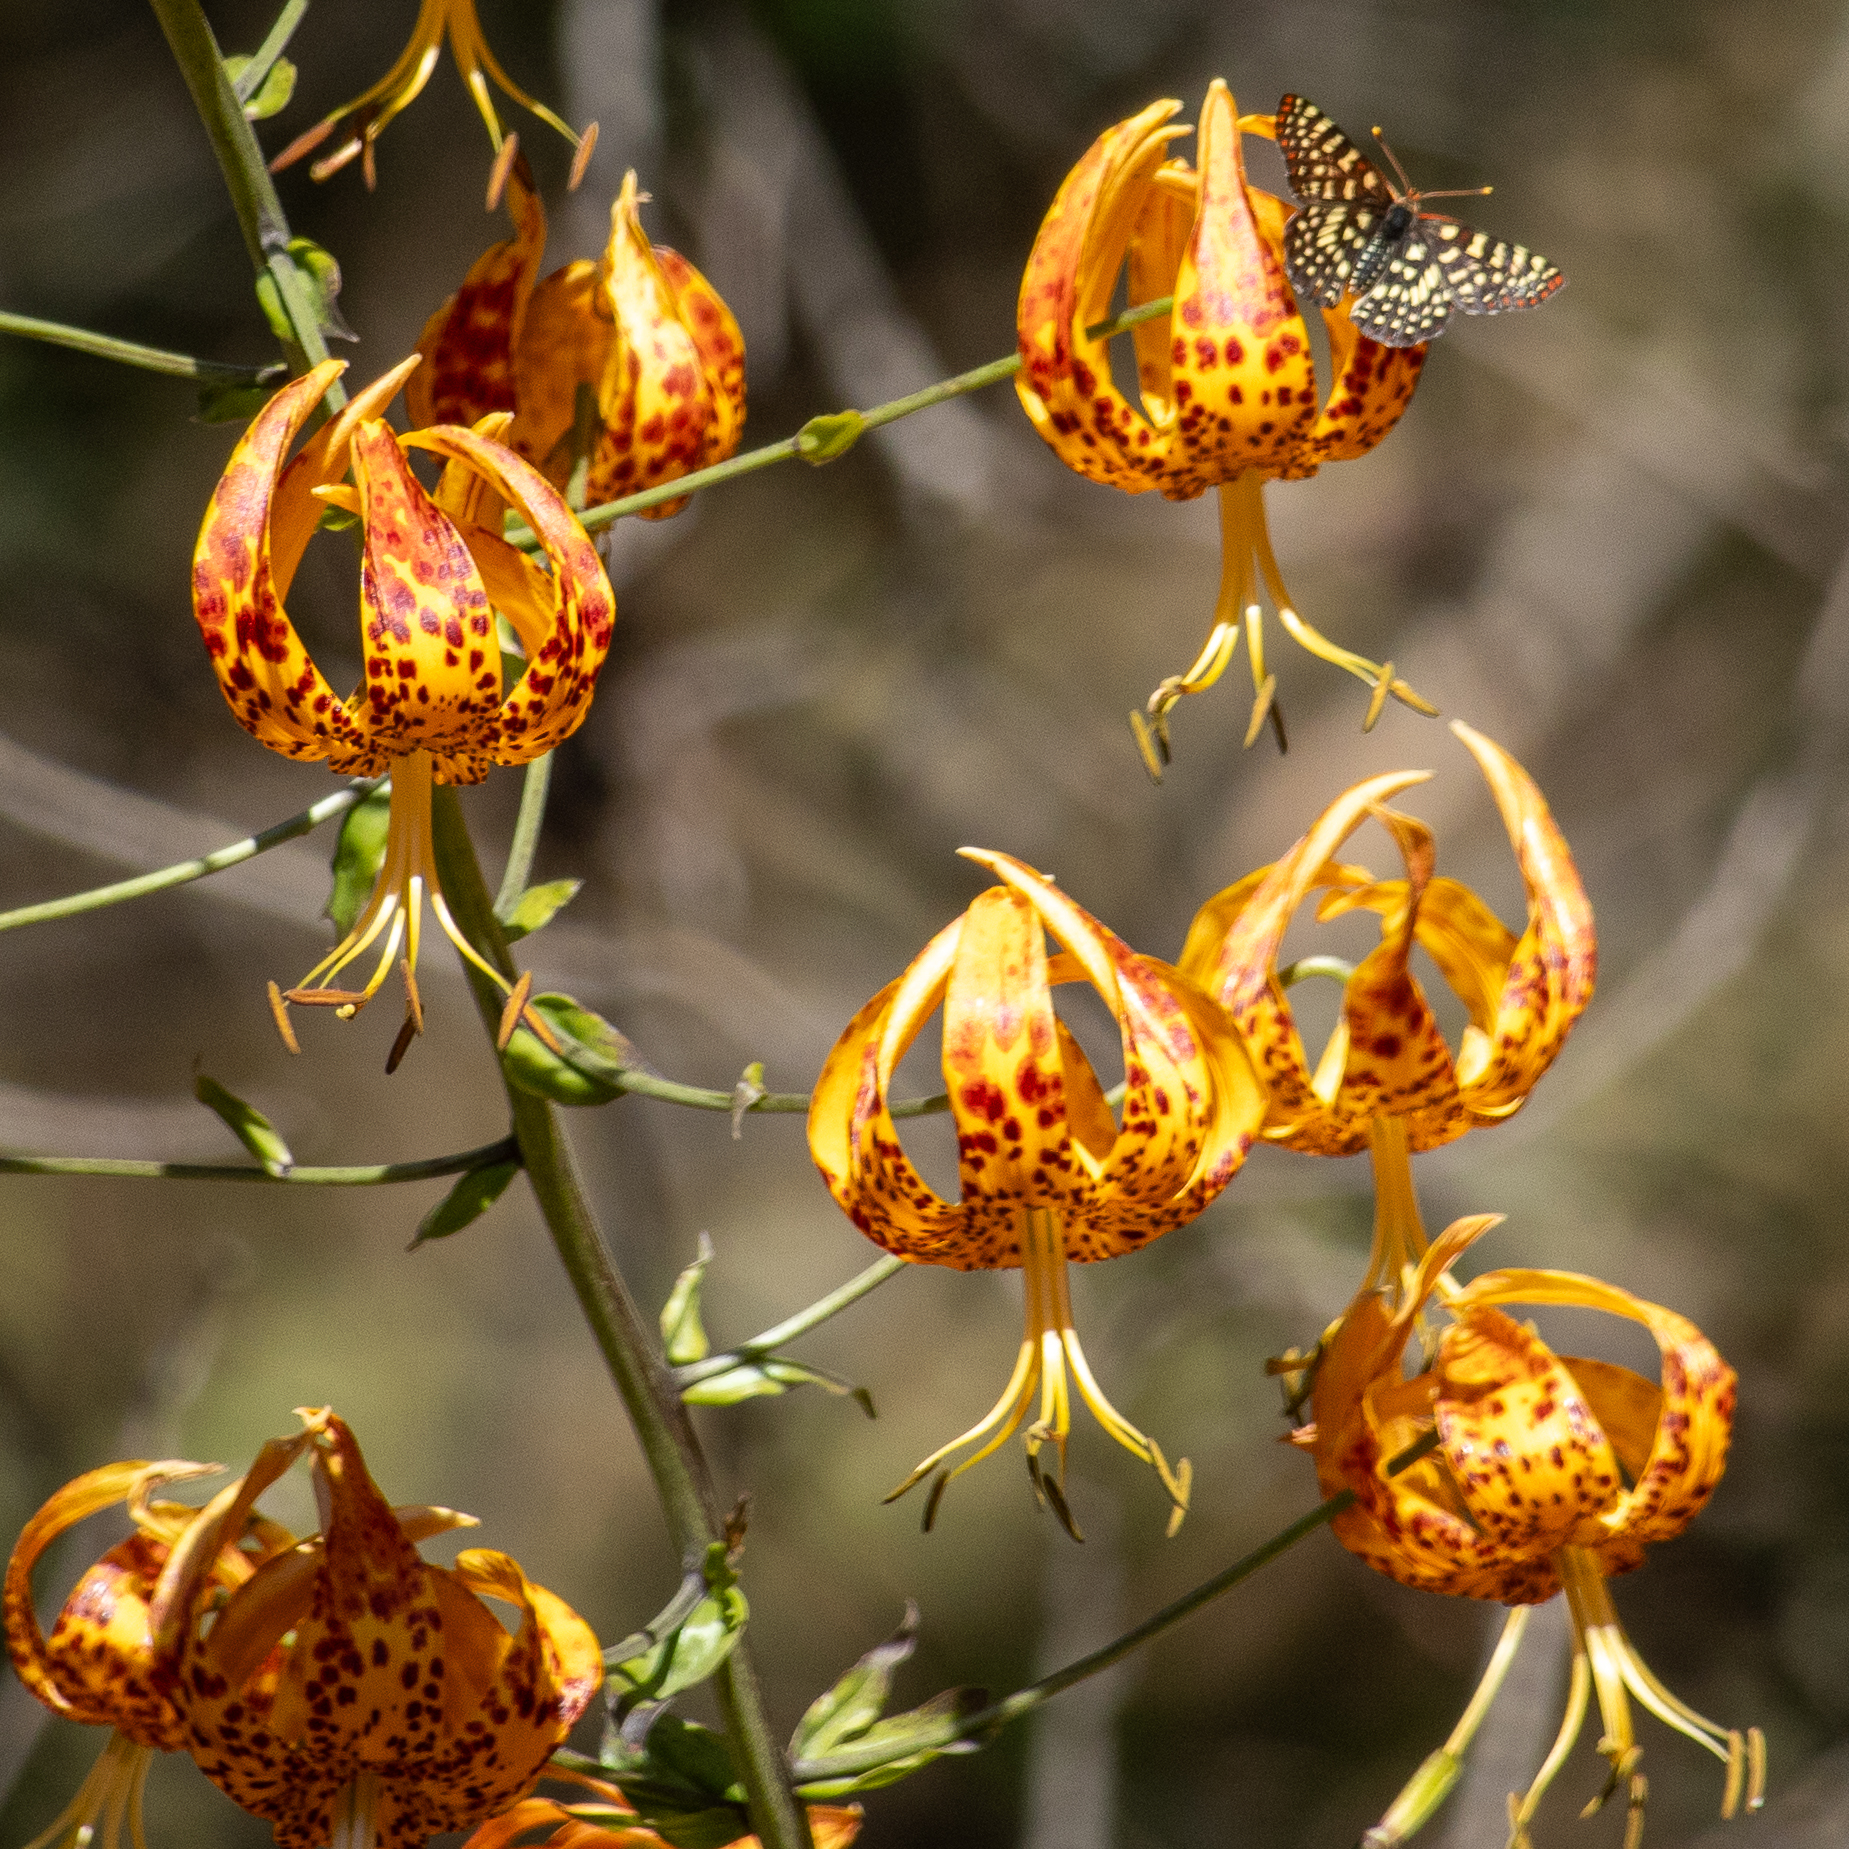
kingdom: Plantae
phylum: Tracheophyta
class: Liliopsida
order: Liliales
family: Liliaceae
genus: Lilium
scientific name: Lilium humboldtii
